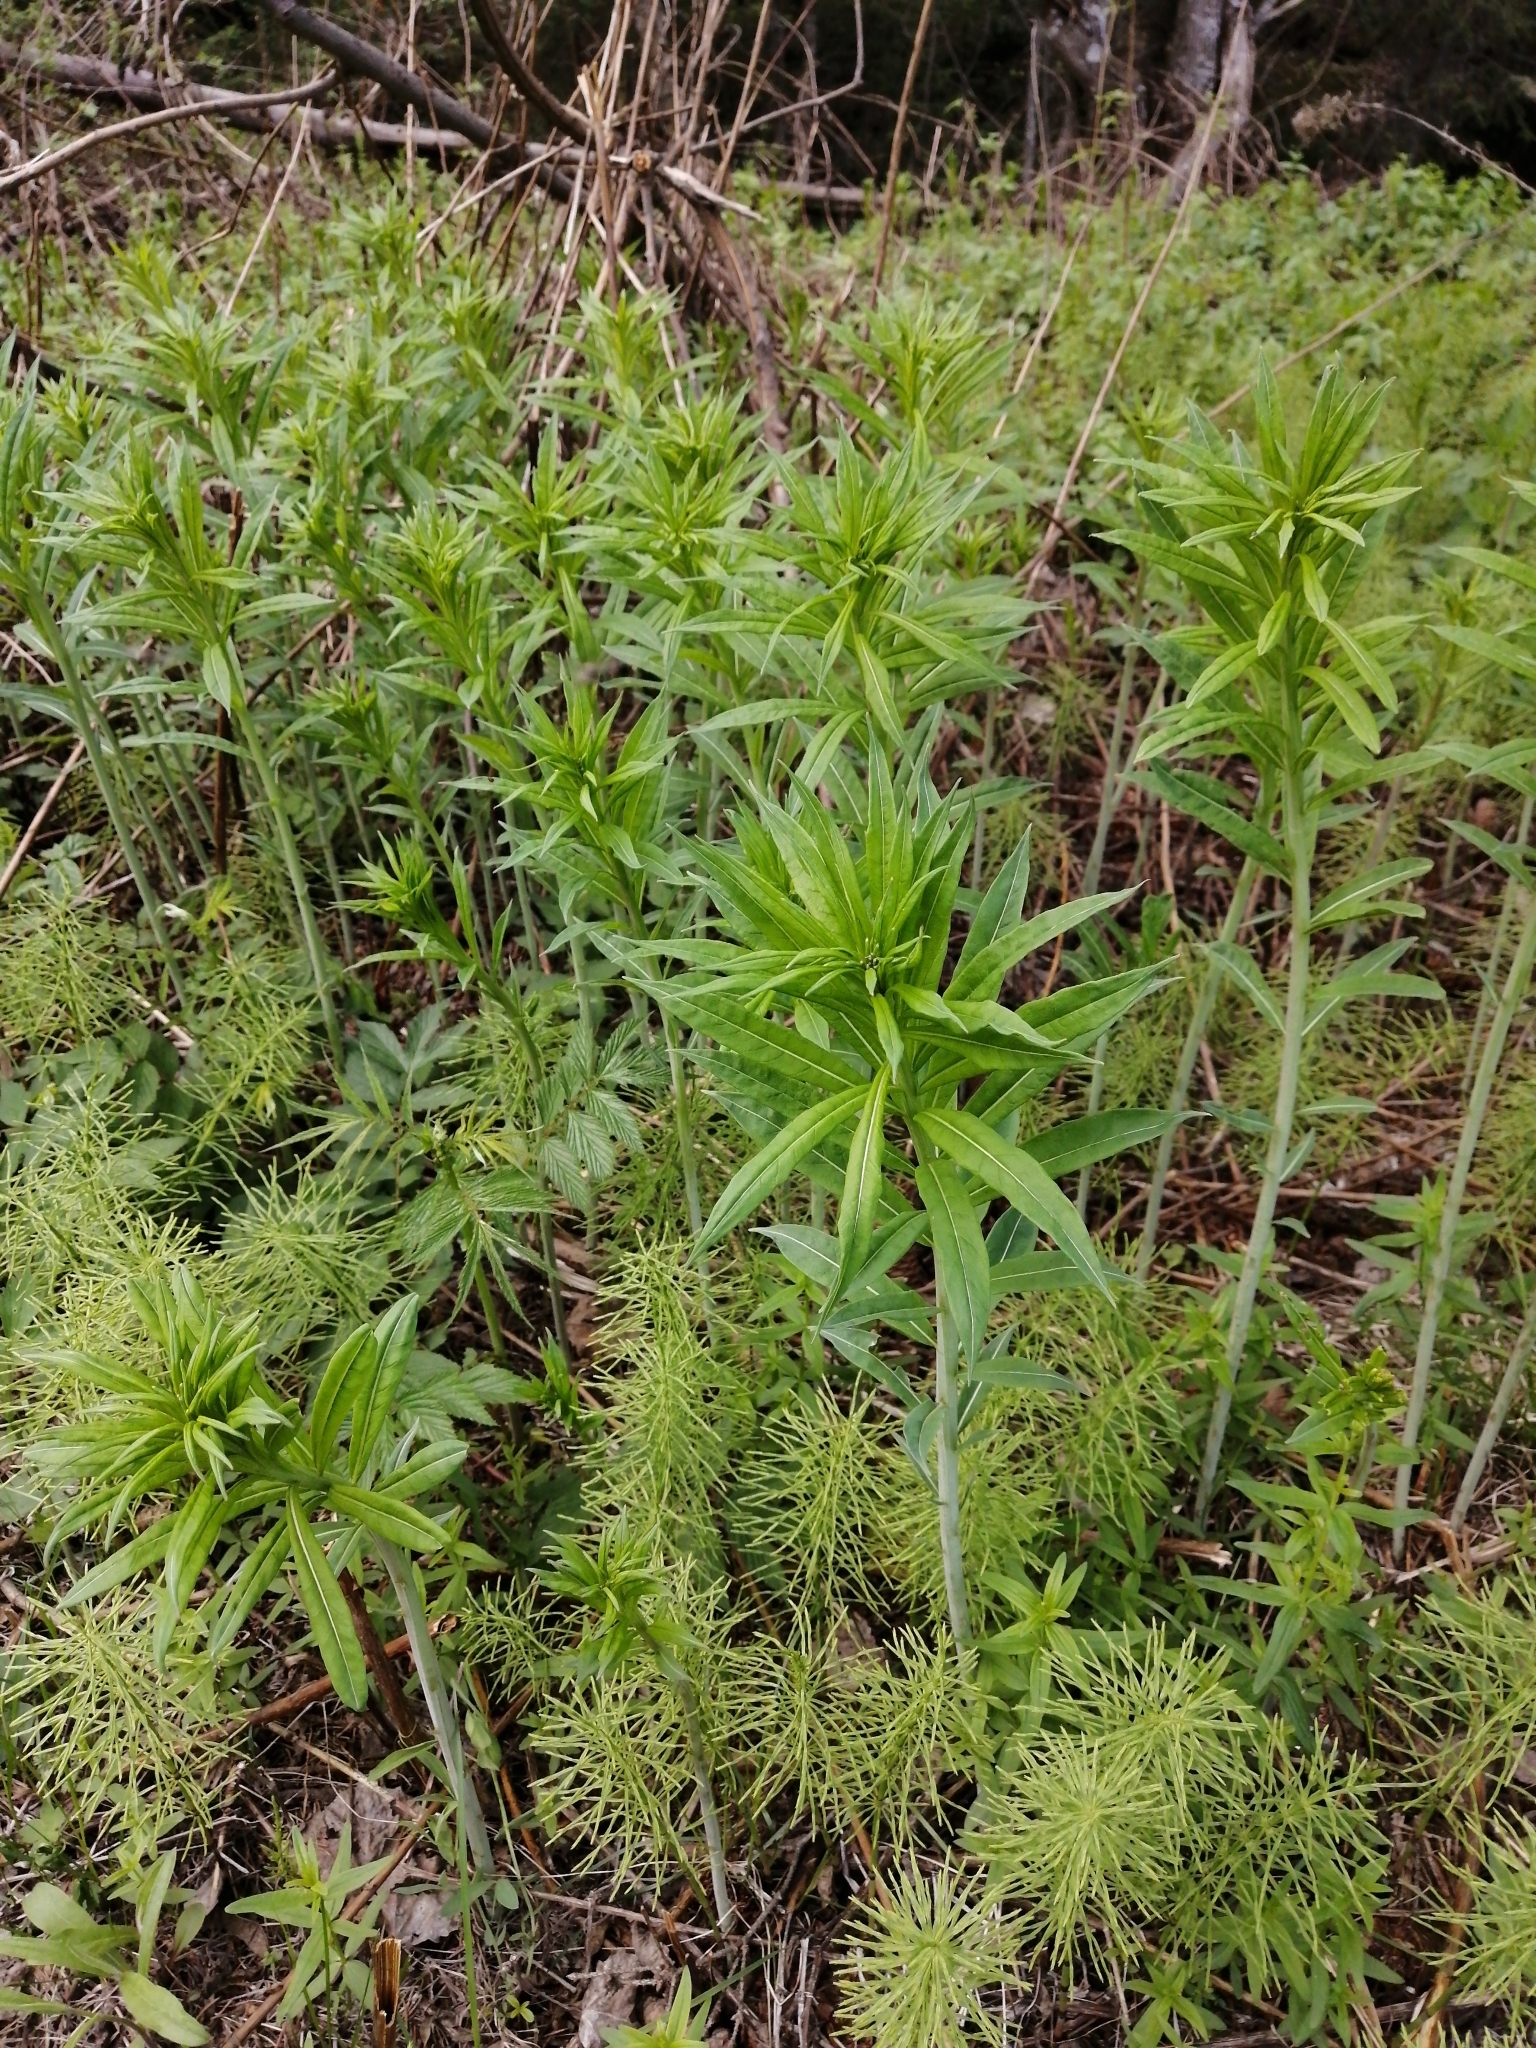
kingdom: Plantae
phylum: Tracheophyta
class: Magnoliopsida
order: Myrtales
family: Onagraceae
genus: Chamaenerion
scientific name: Chamaenerion angustifolium
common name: Fireweed
